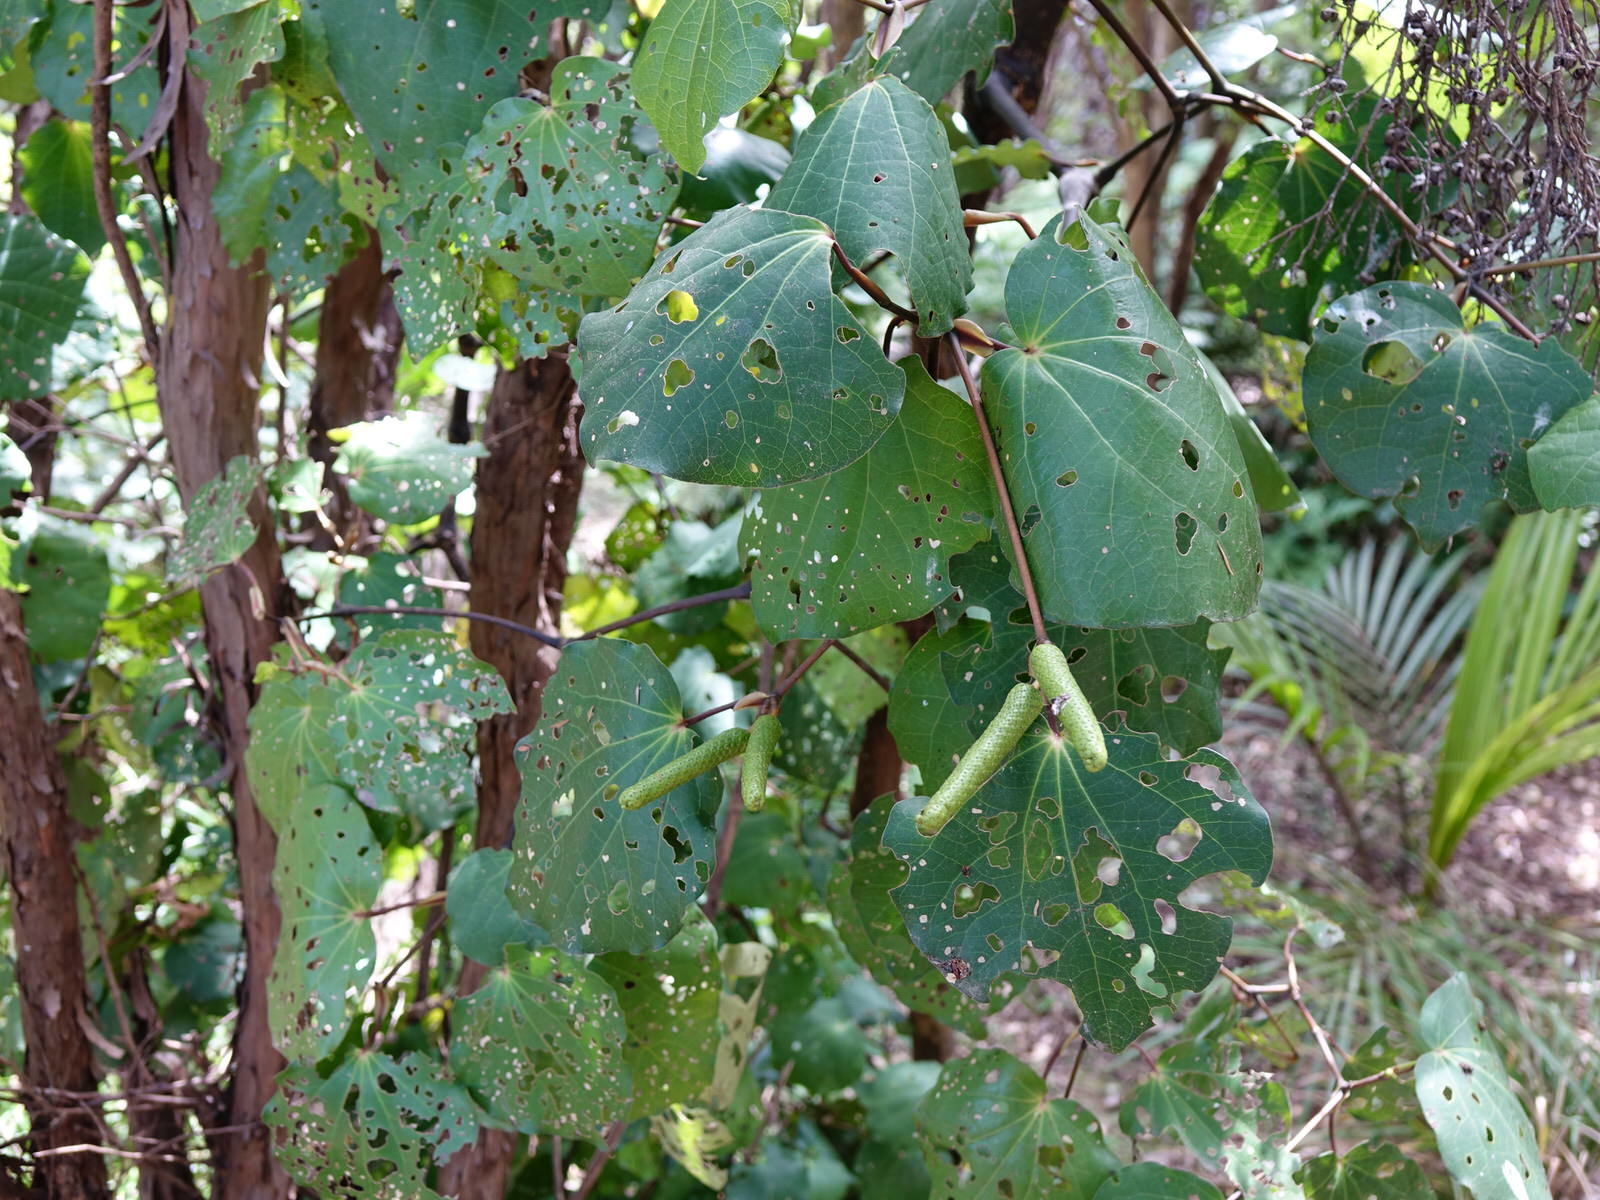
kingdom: Plantae
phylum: Tracheophyta
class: Magnoliopsida
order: Piperales
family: Piperaceae
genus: Macropiper
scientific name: Macropiper excelsum
